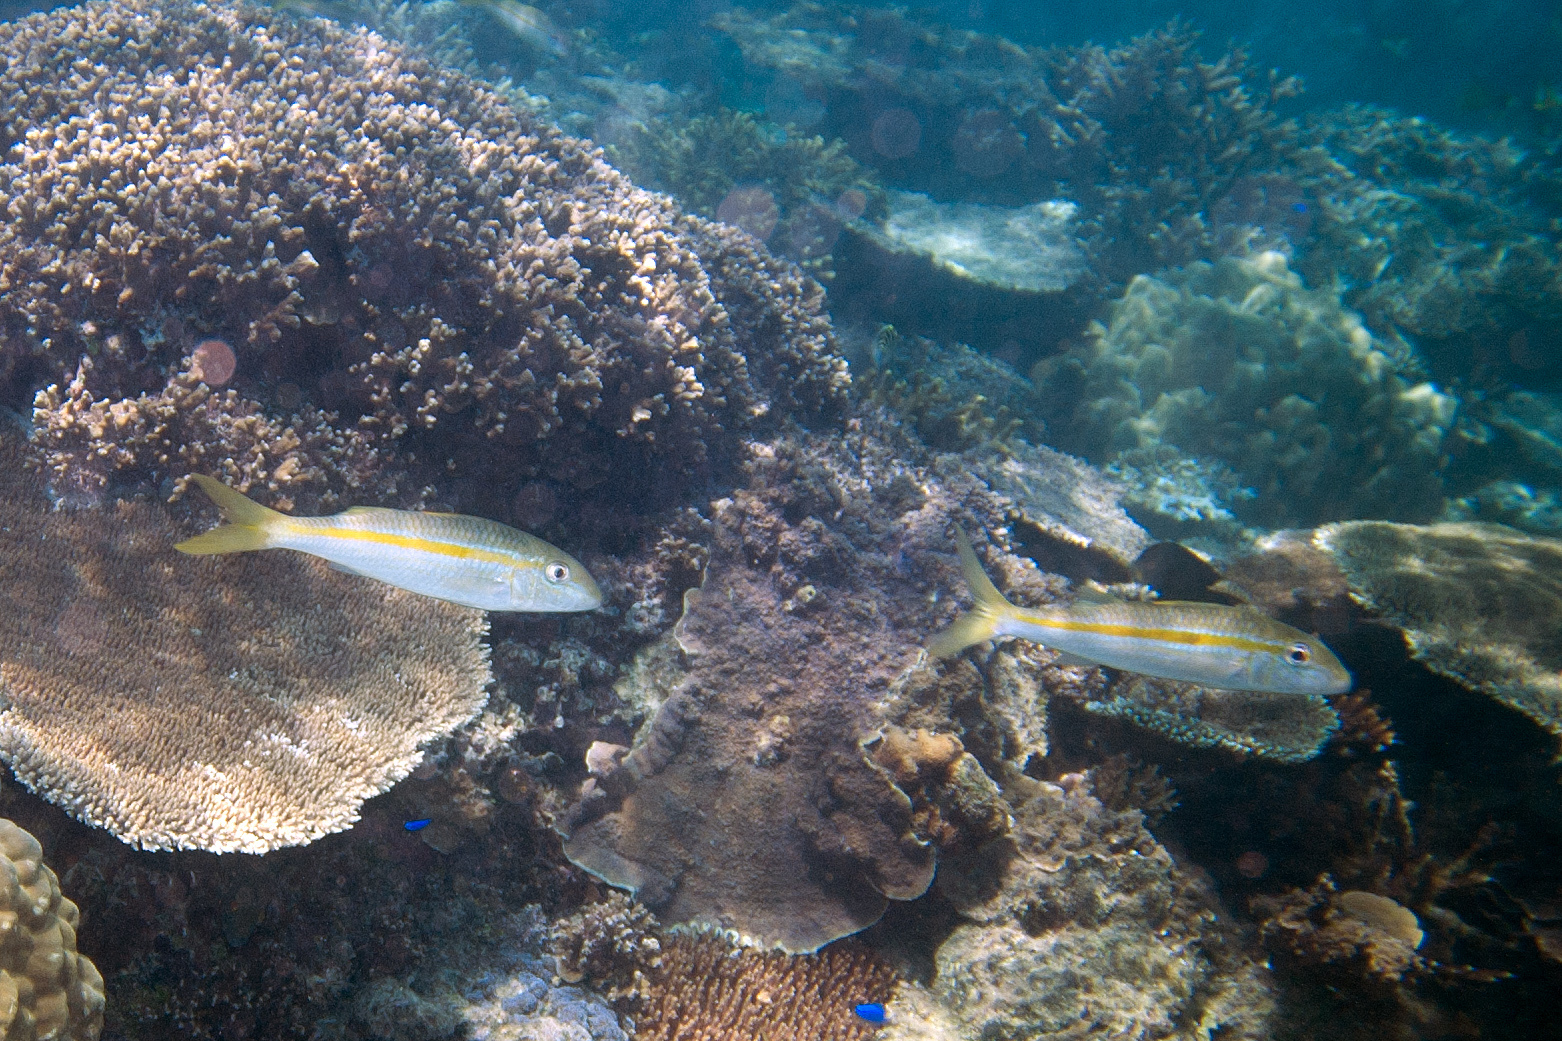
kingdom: Animalia
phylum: Chordata
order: Perciformes
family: Mullidae
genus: Mulloidichthys
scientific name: Mulloidichthys flavolineatus
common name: Yellowstripe goatfish
